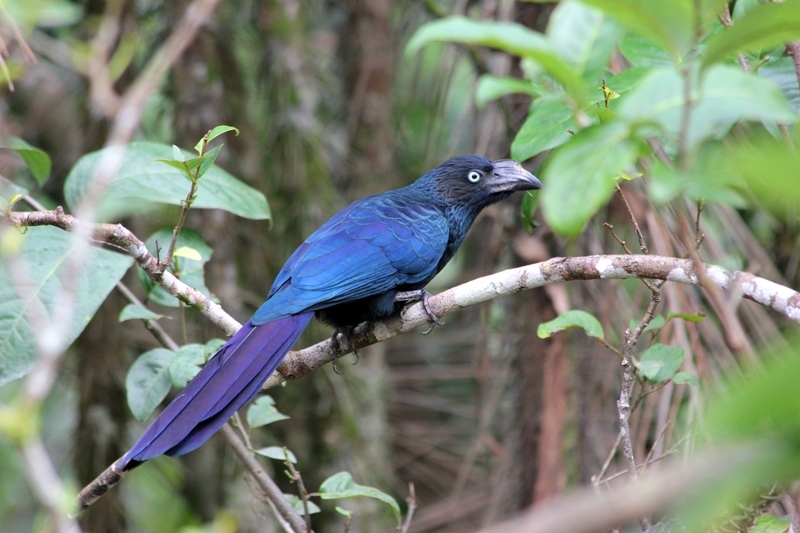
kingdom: Animalia
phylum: Chordata
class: Aves
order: Cuculiformes
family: Cuculidae
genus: Crotophaga
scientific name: Crotophaga major
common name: Greater ani
